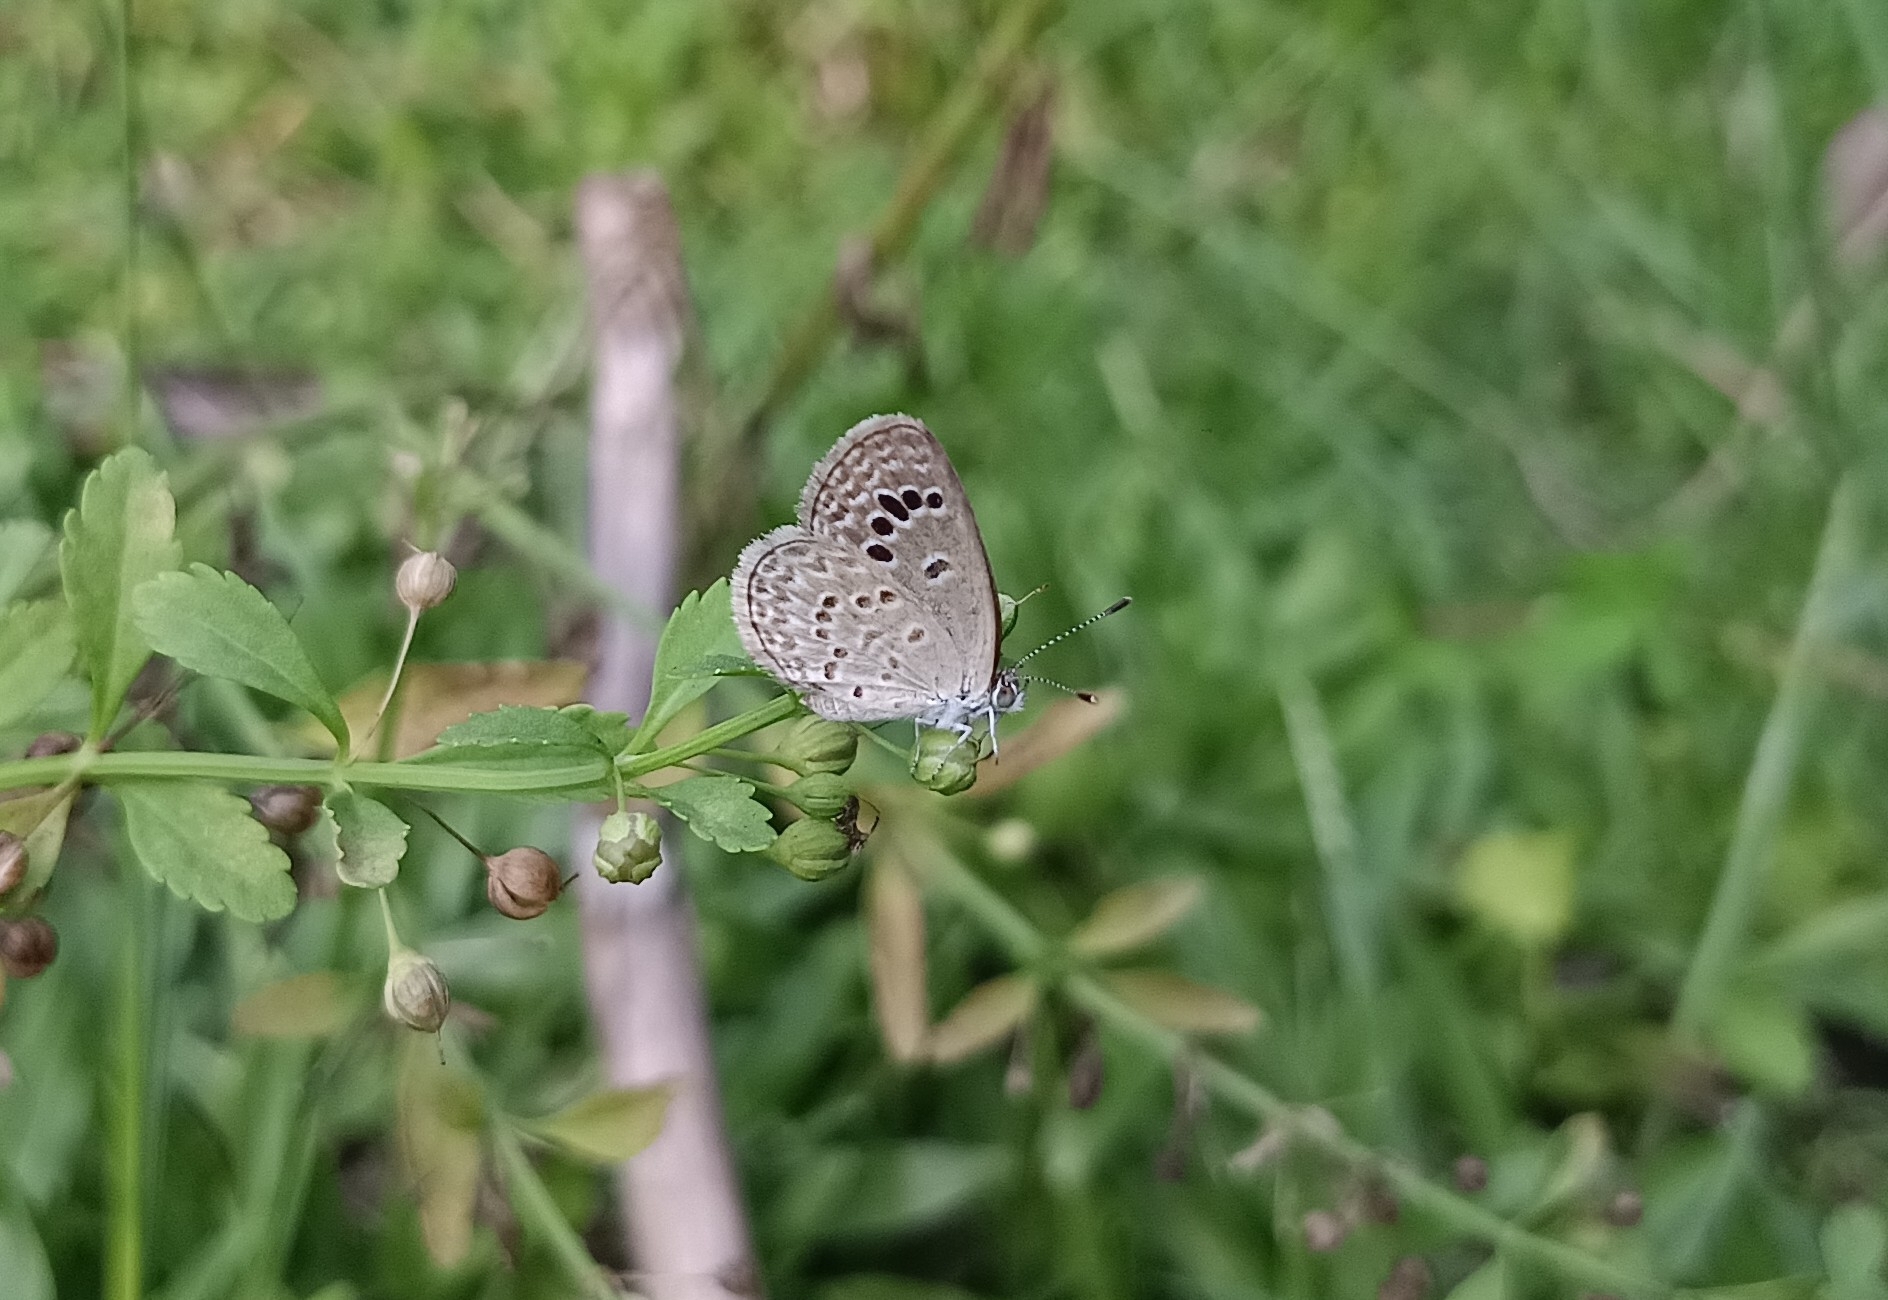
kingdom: Animalia
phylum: Arthropoda
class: Insecta
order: Lepidoptera
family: Lycaenidae
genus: Zizina
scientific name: Zizina otis
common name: Lesser grass blue
